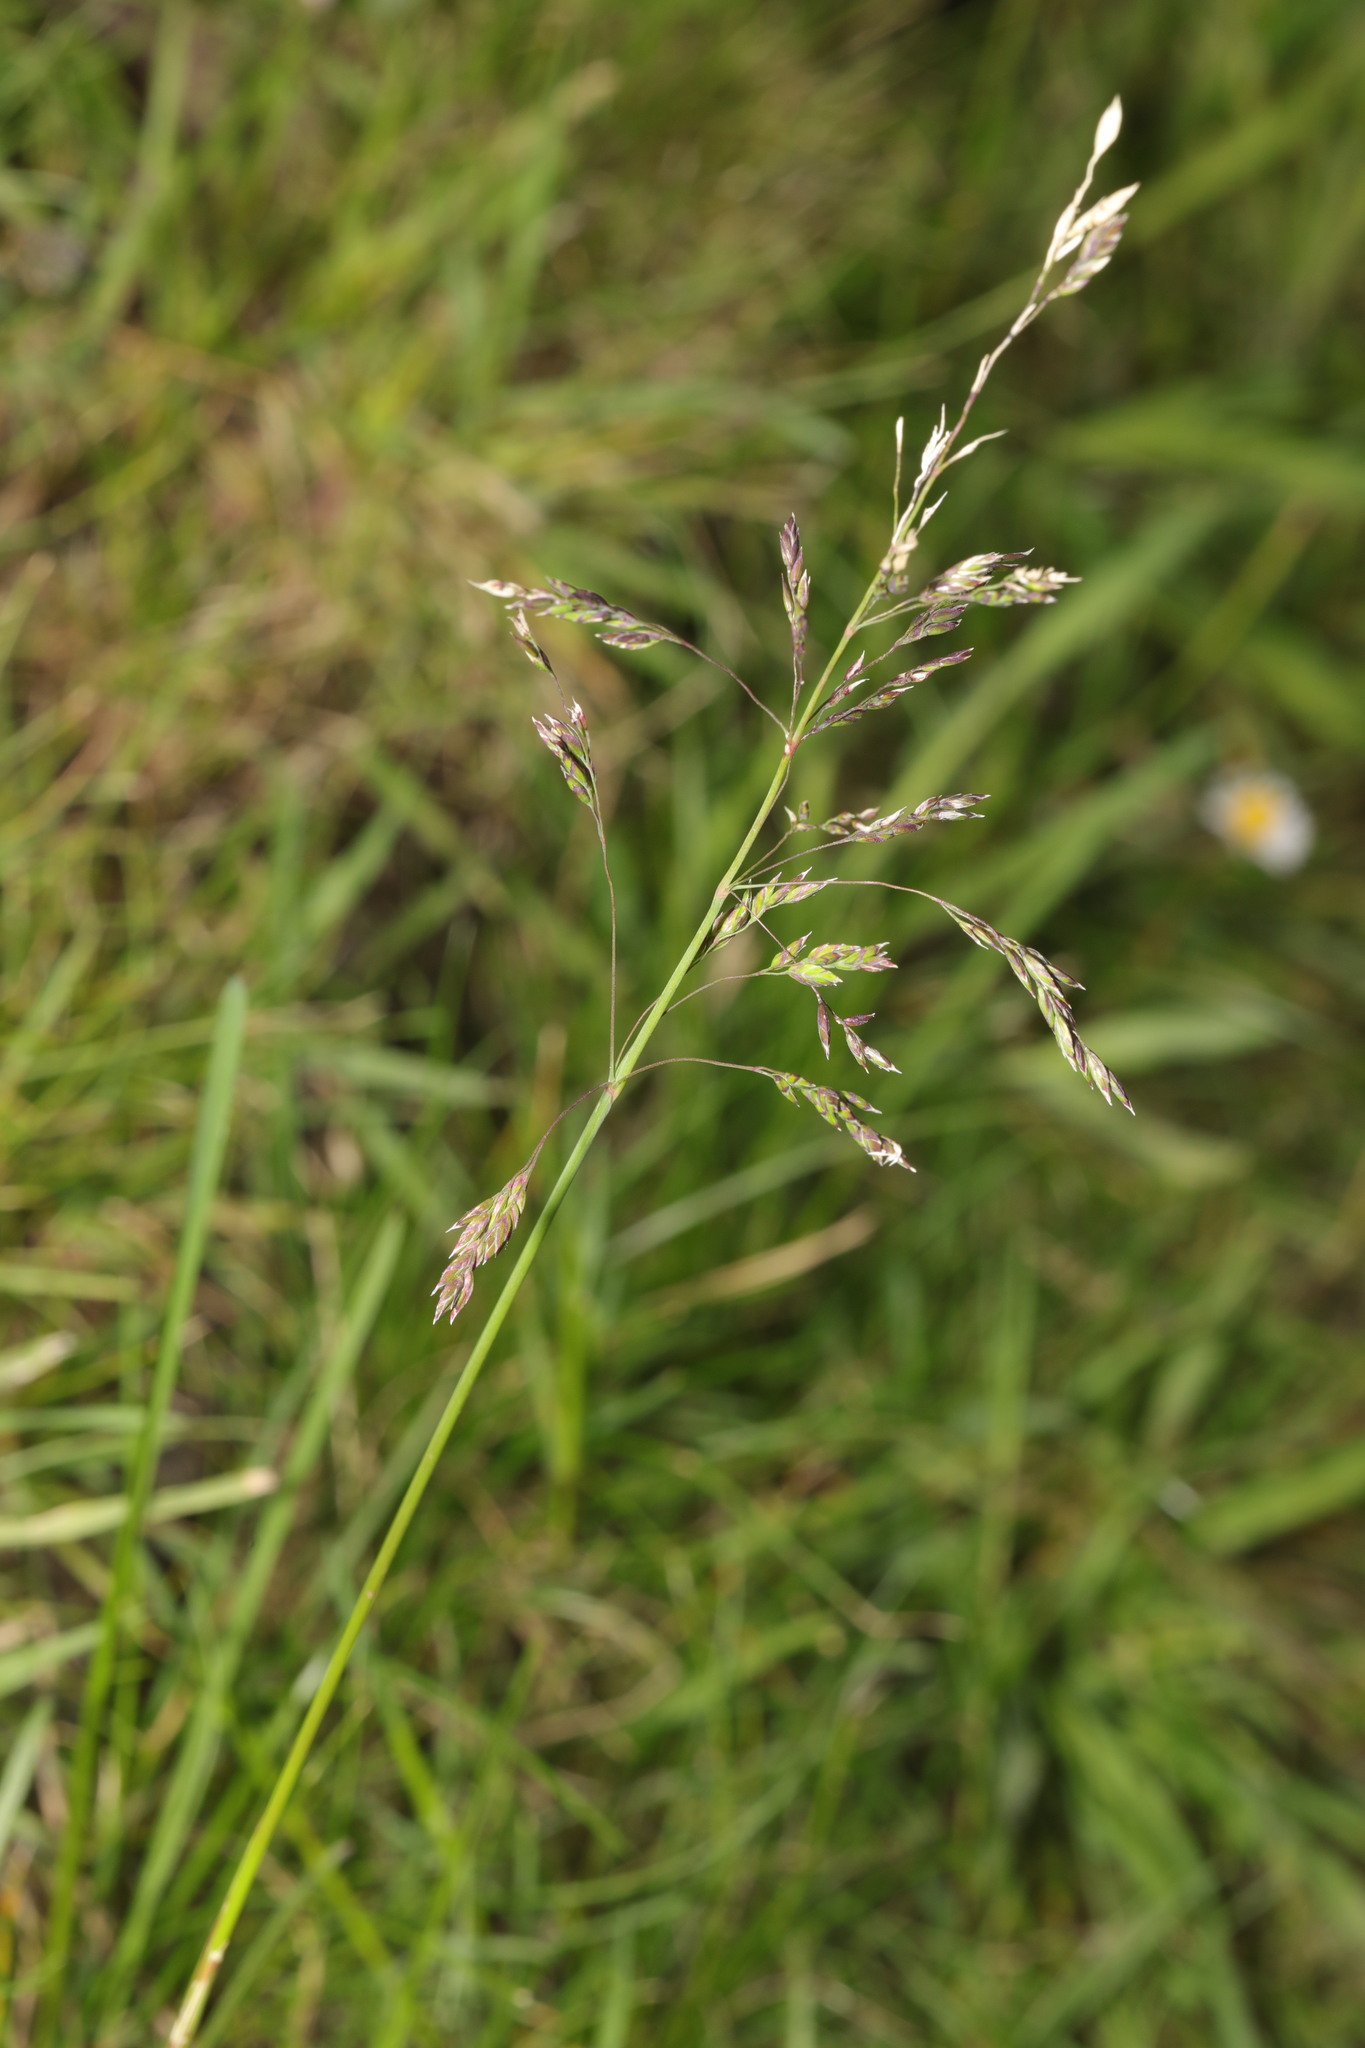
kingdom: Plantae
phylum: Tracheophyta
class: Liliopsida
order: Poales
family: Poaceae
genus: Poa
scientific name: Poa pratensis
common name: Kentucky bluegrass
